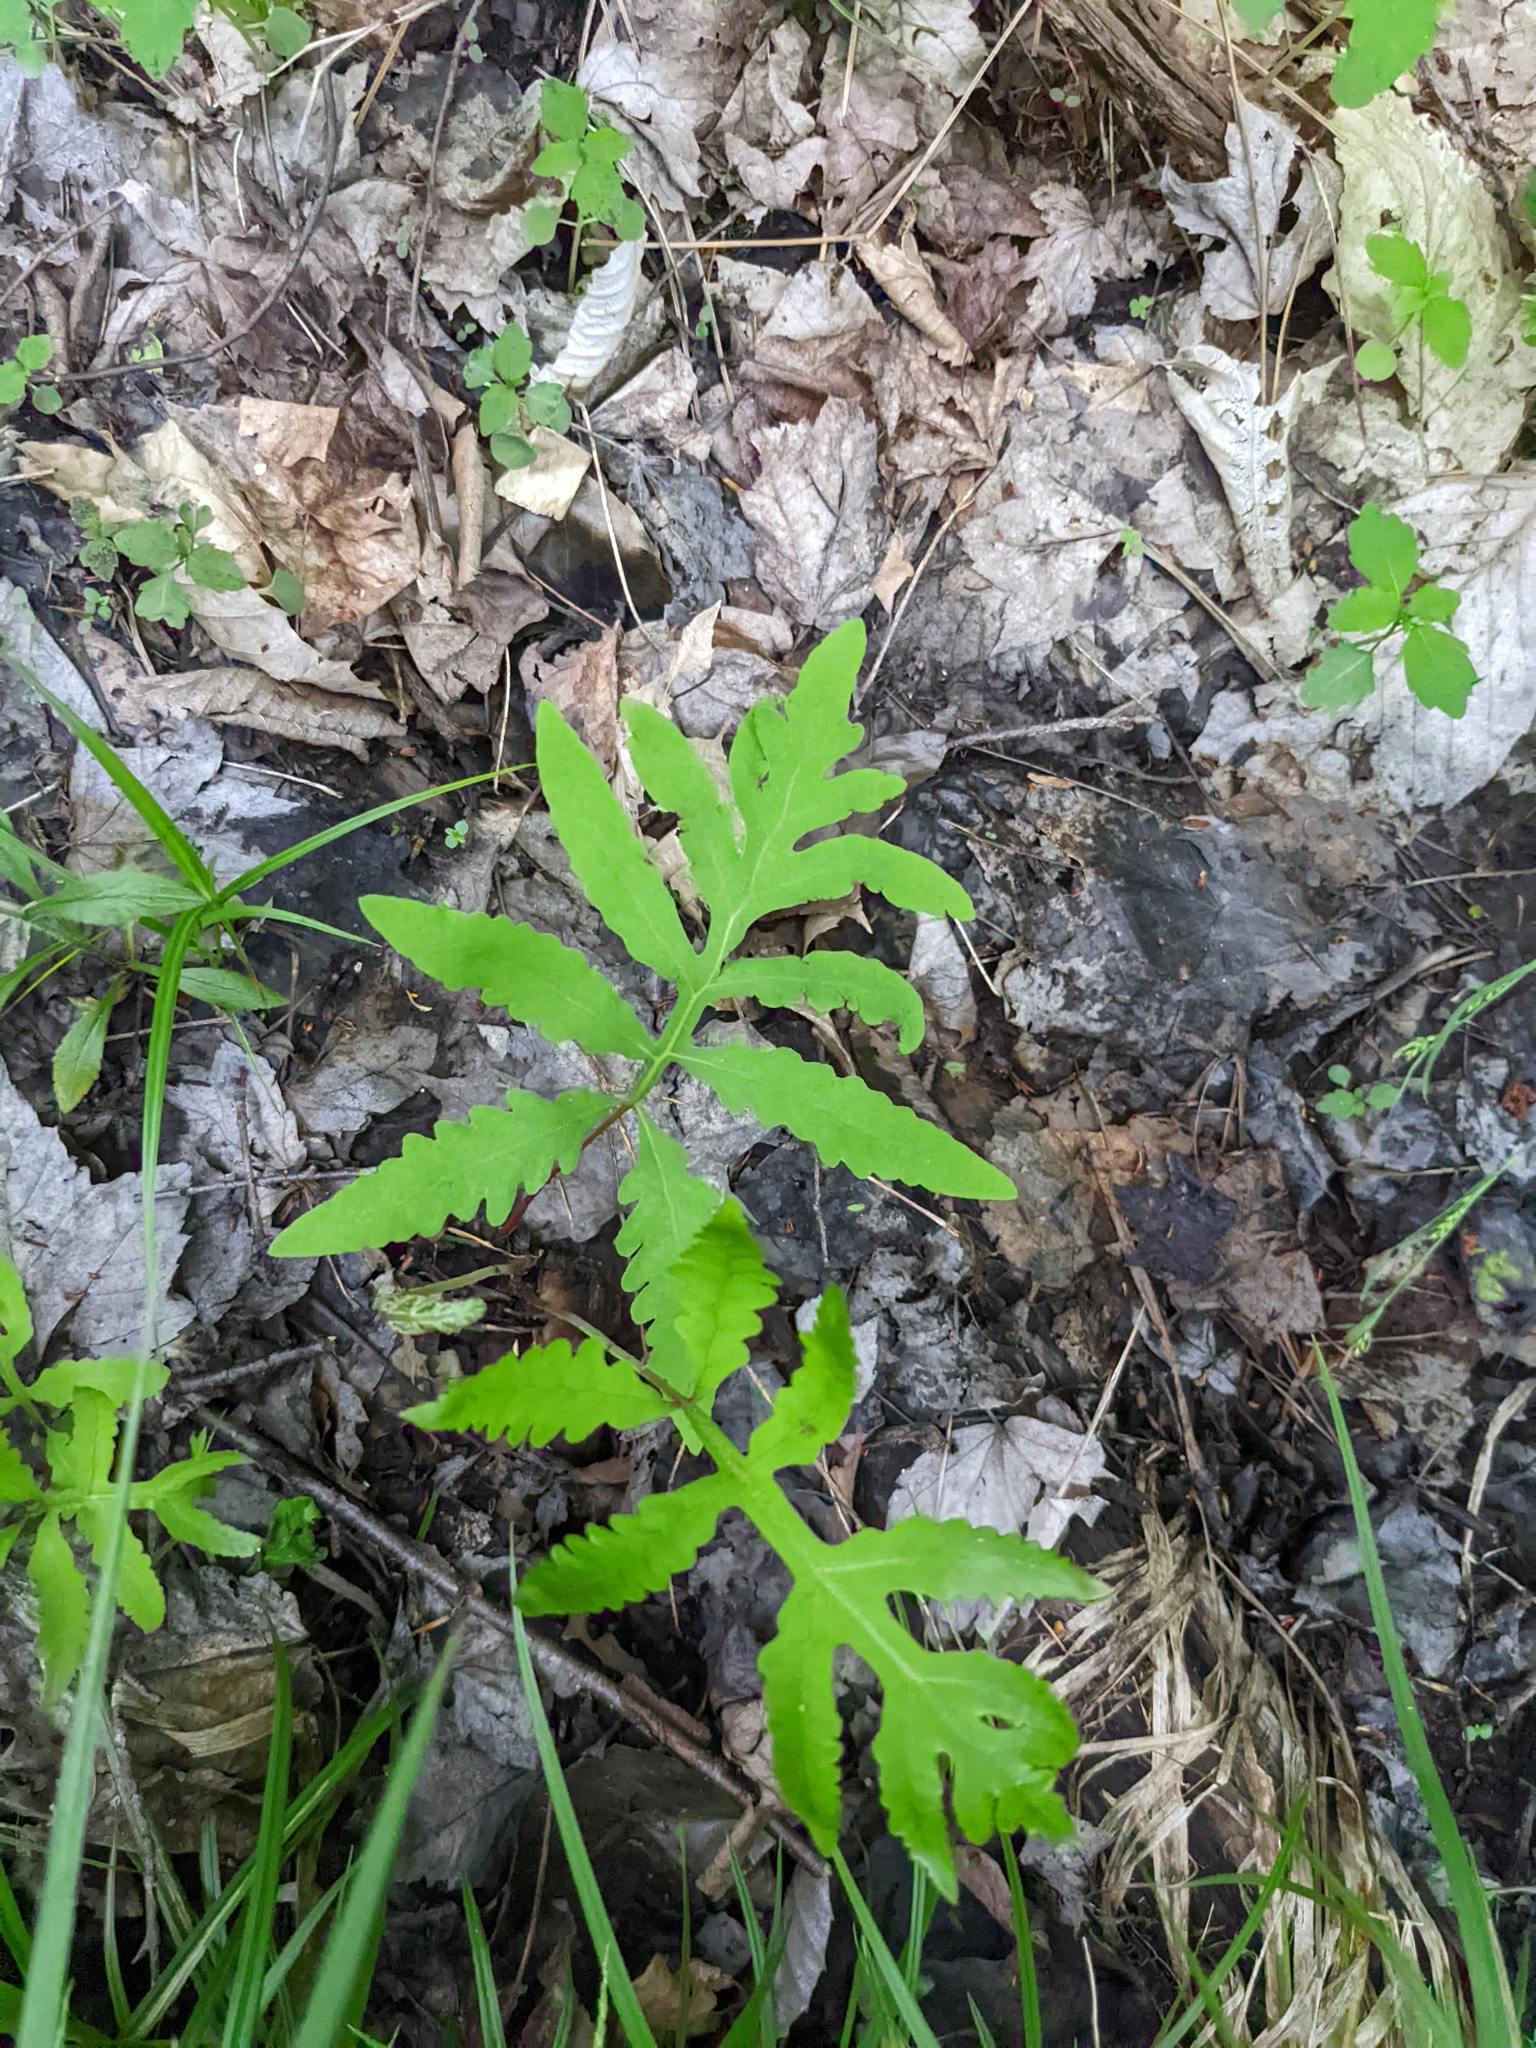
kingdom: Plantae
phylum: Tracheophyta
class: Polypodiopsida
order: Polypodiales
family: Onocleaceae
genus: Onoclea
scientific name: Onoclea sensibilis
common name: Sensitive fern
